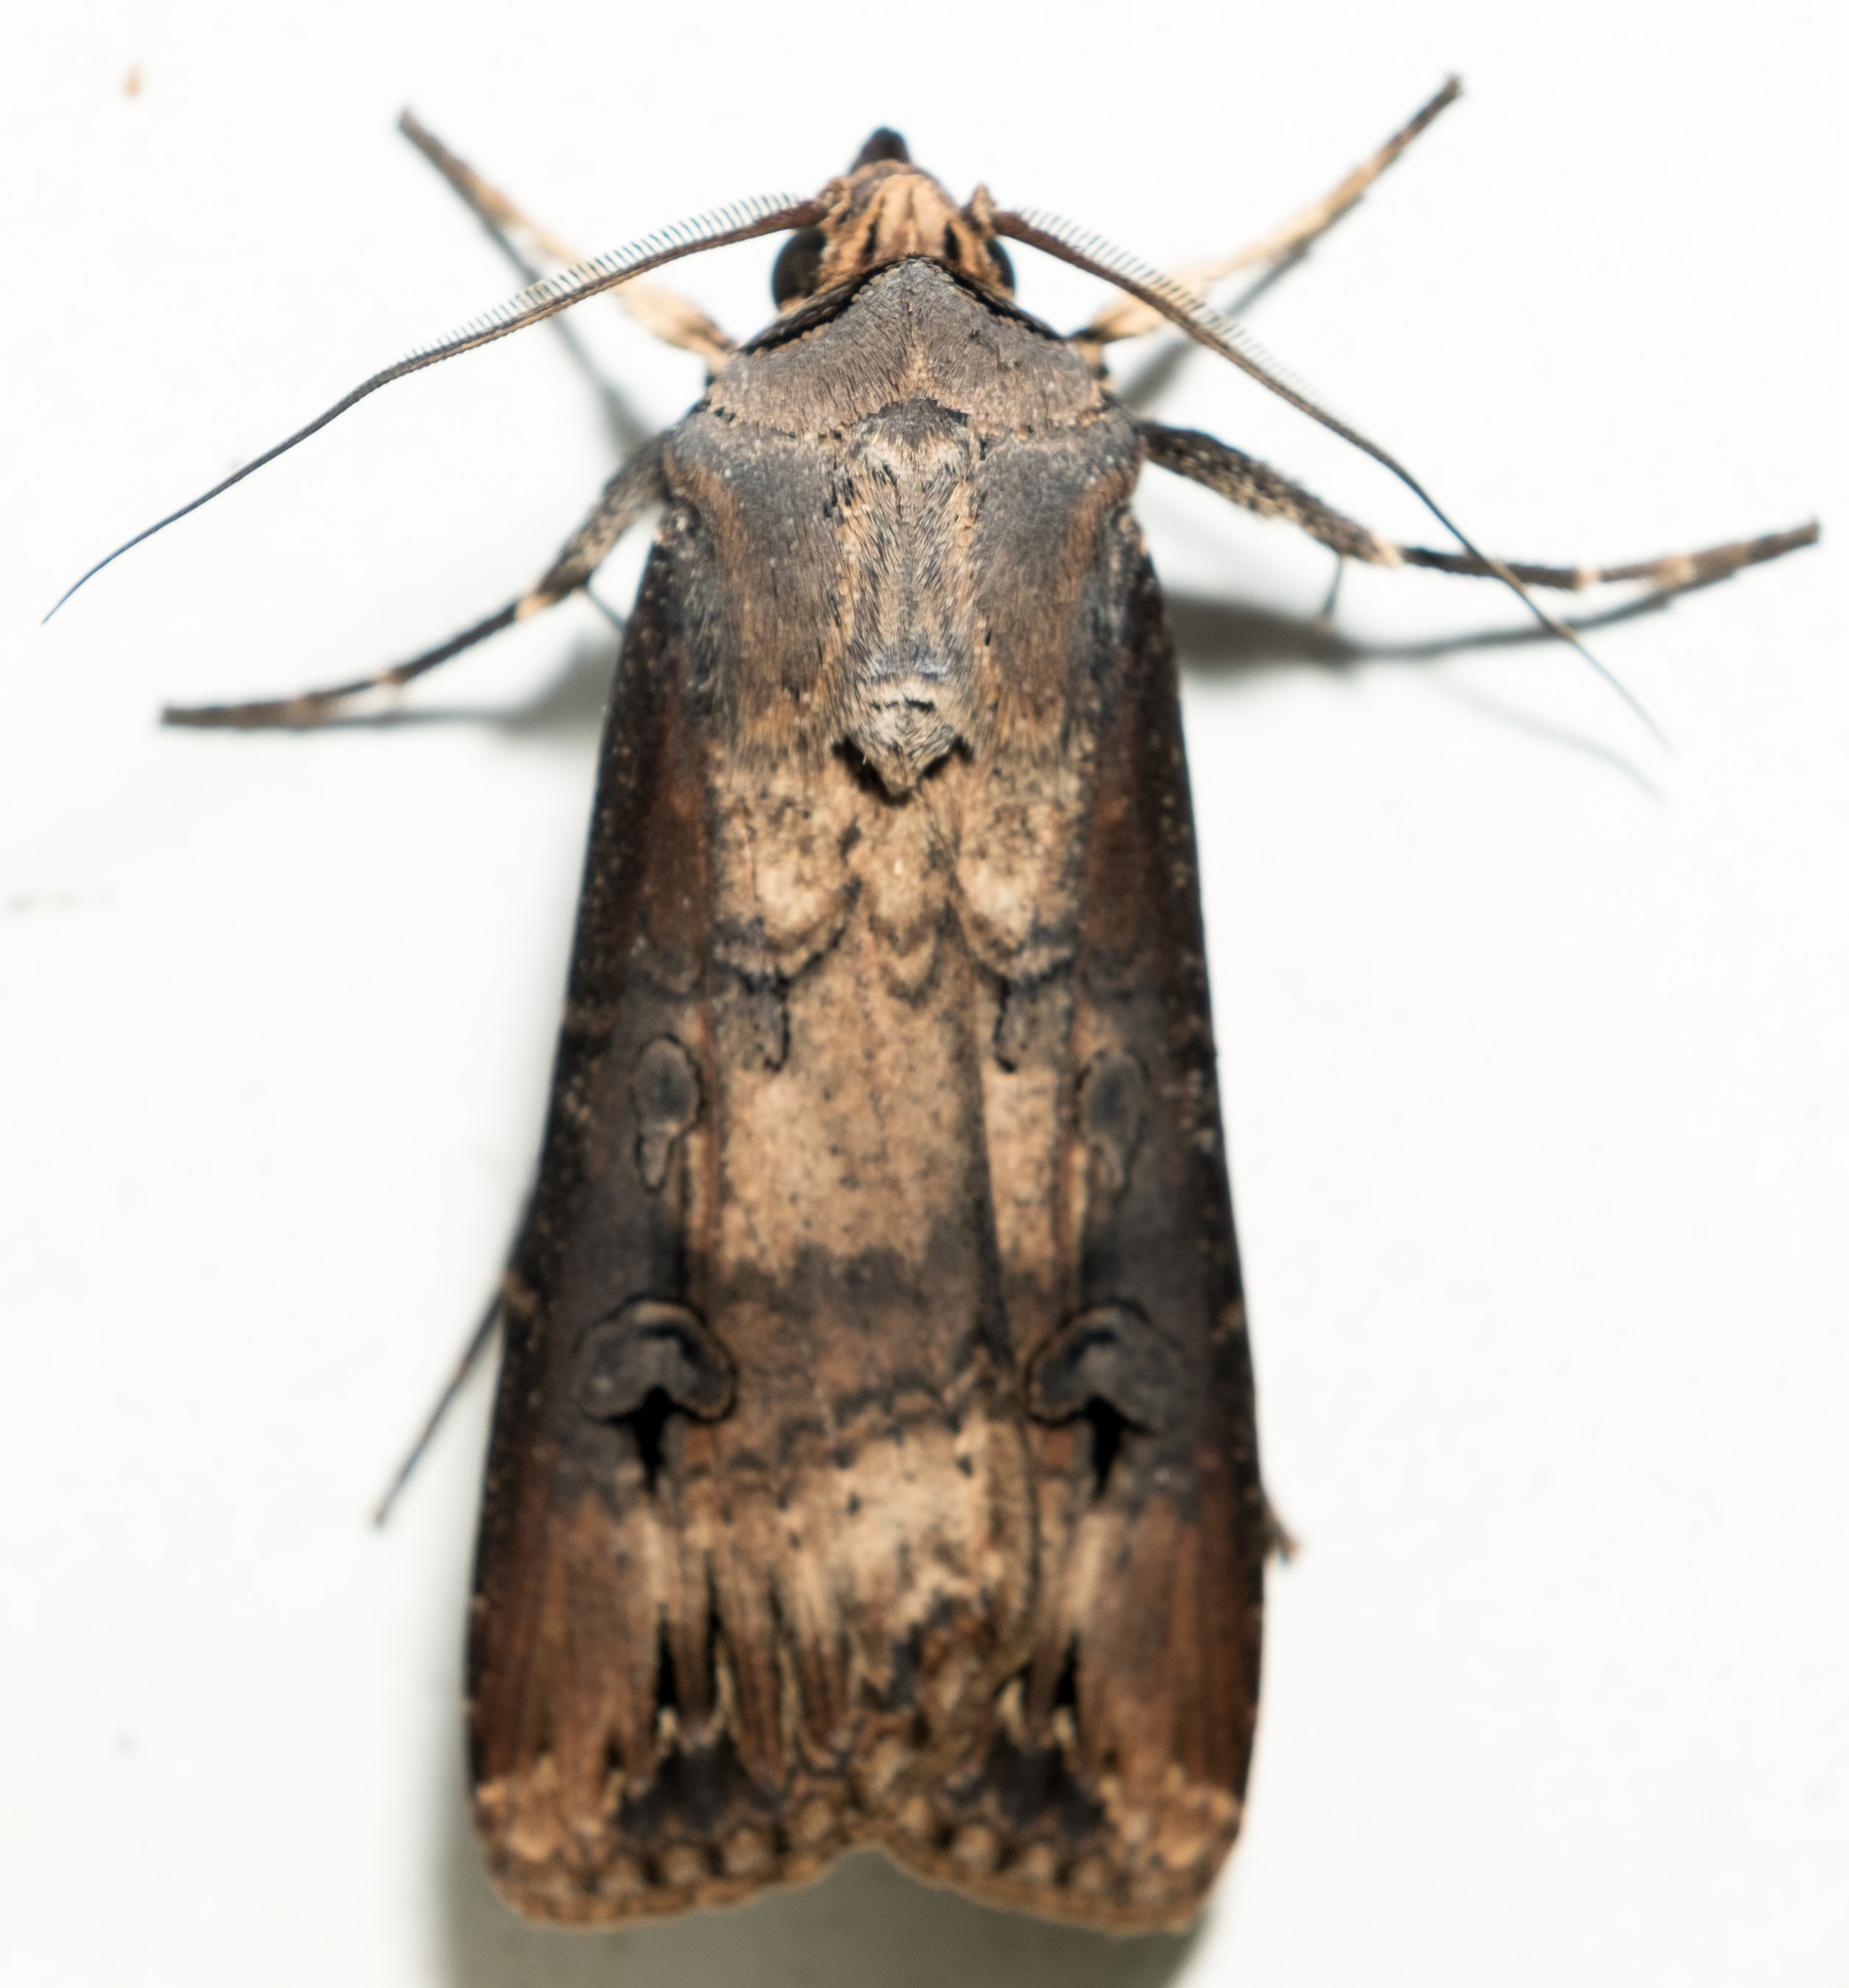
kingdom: Animalia
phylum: Arthropoda
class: Insecta
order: Lepidoptera
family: Noctuidae
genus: Agrotis
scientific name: Agrotis ipsilon
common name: Dark sword-grass
